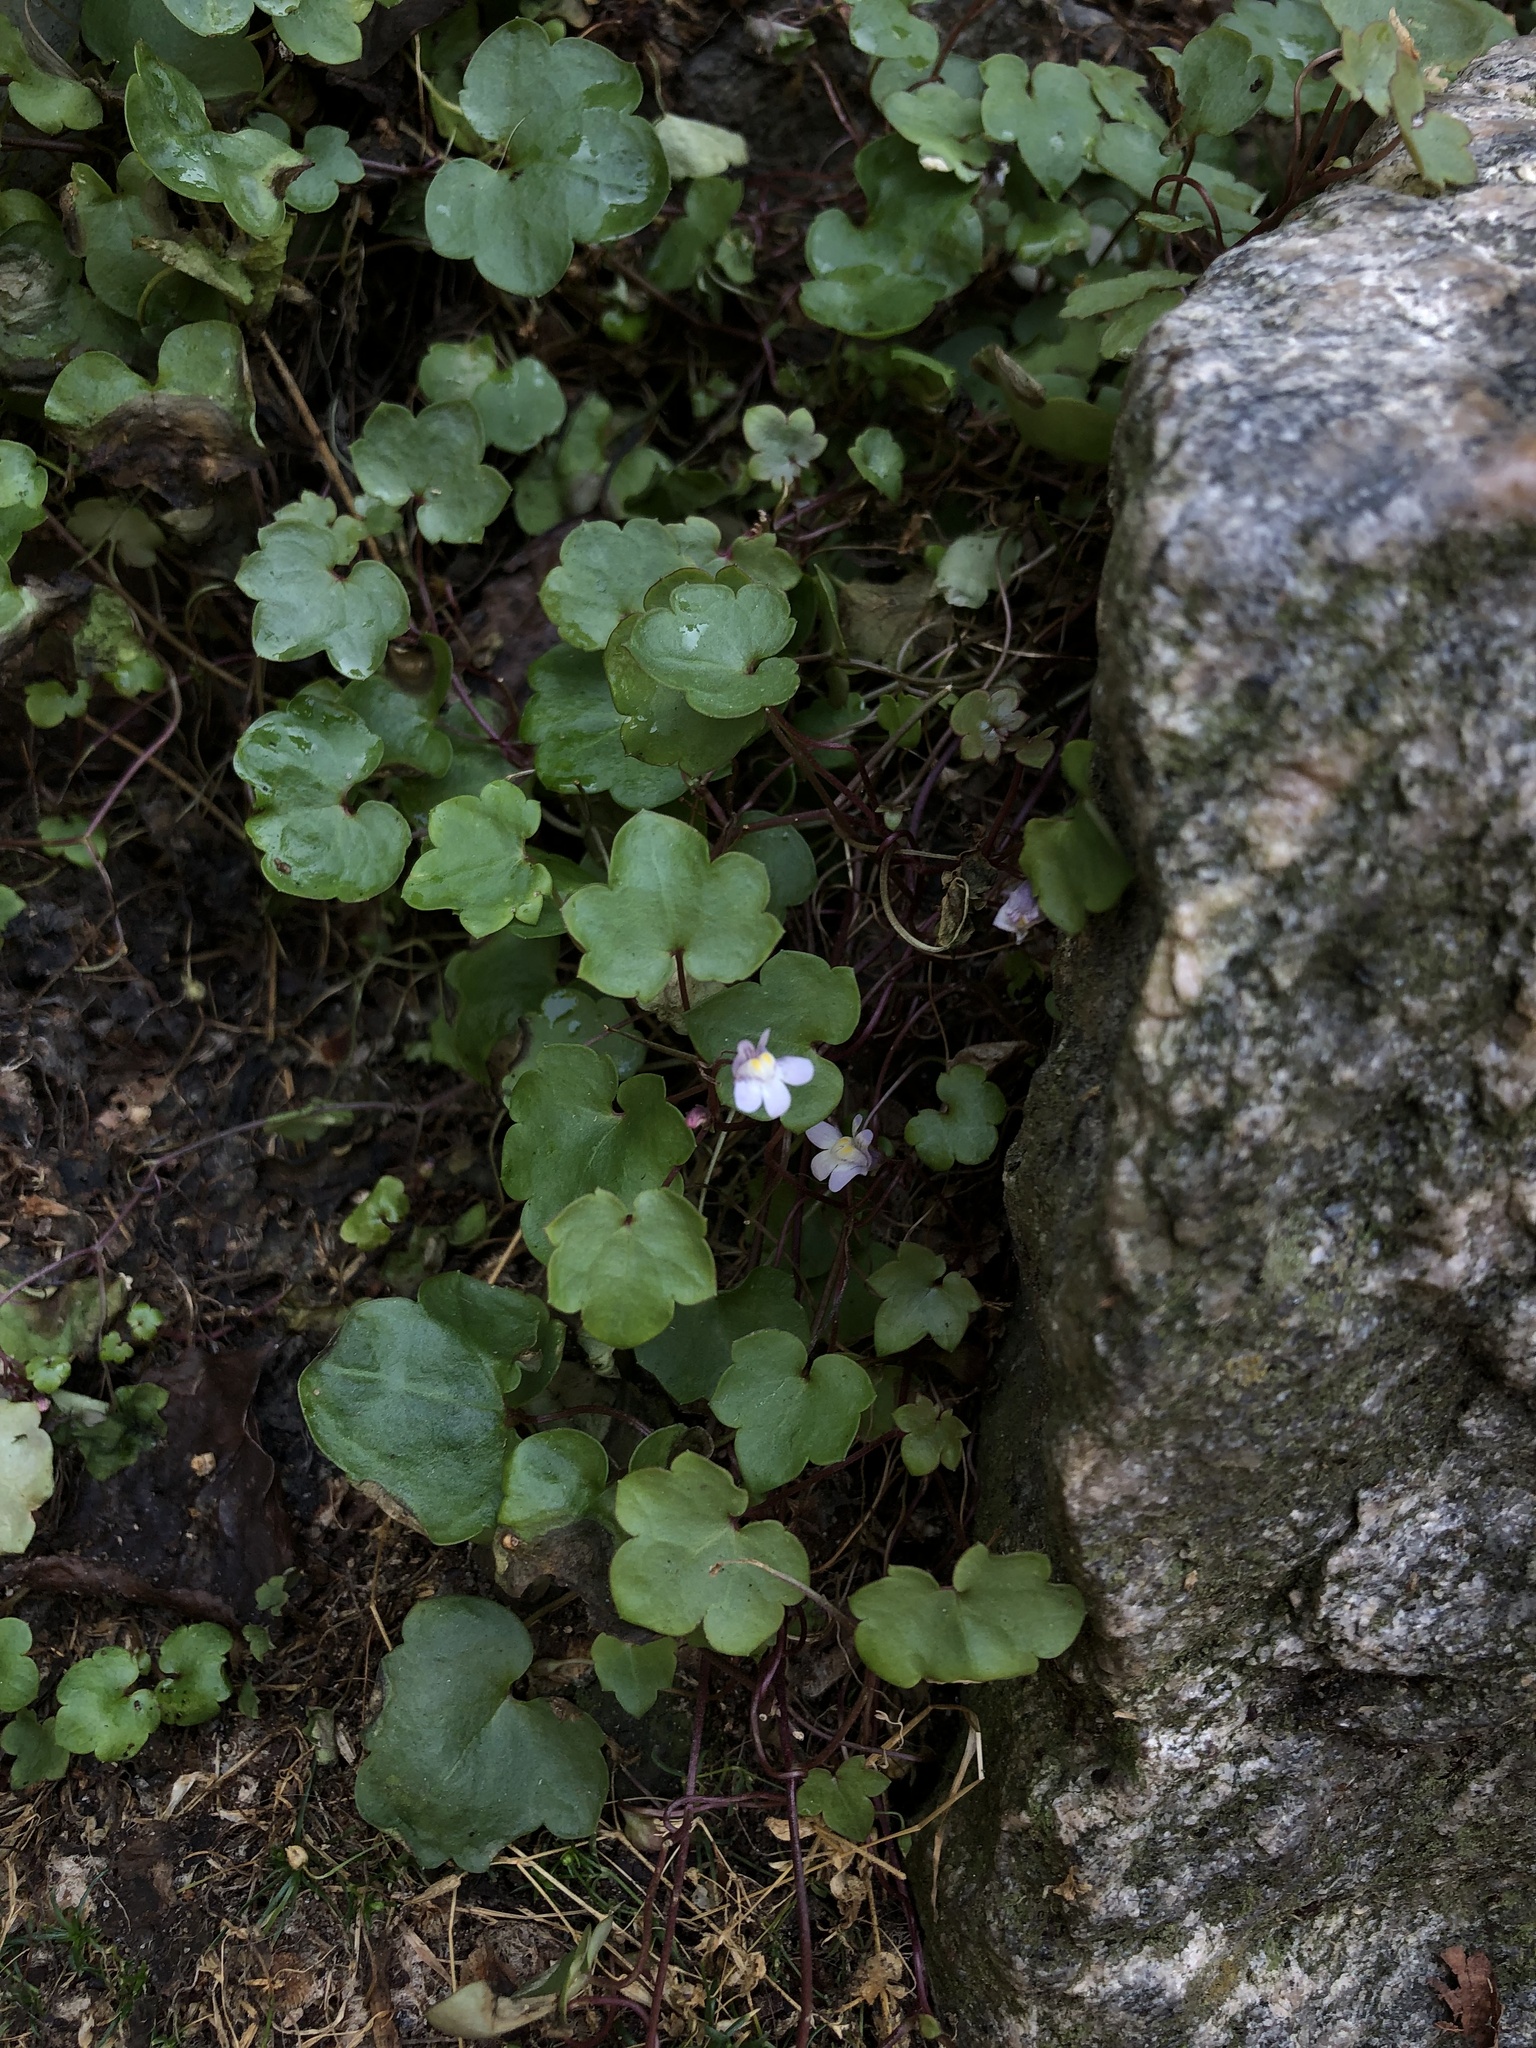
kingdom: Plantae
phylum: Tracheophyta
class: Magnoliopsida
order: Lamiales
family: Plantaginaceae
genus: Cymbalaria
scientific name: Cymbalaria muralis
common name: Ivy-leaved toadflax
